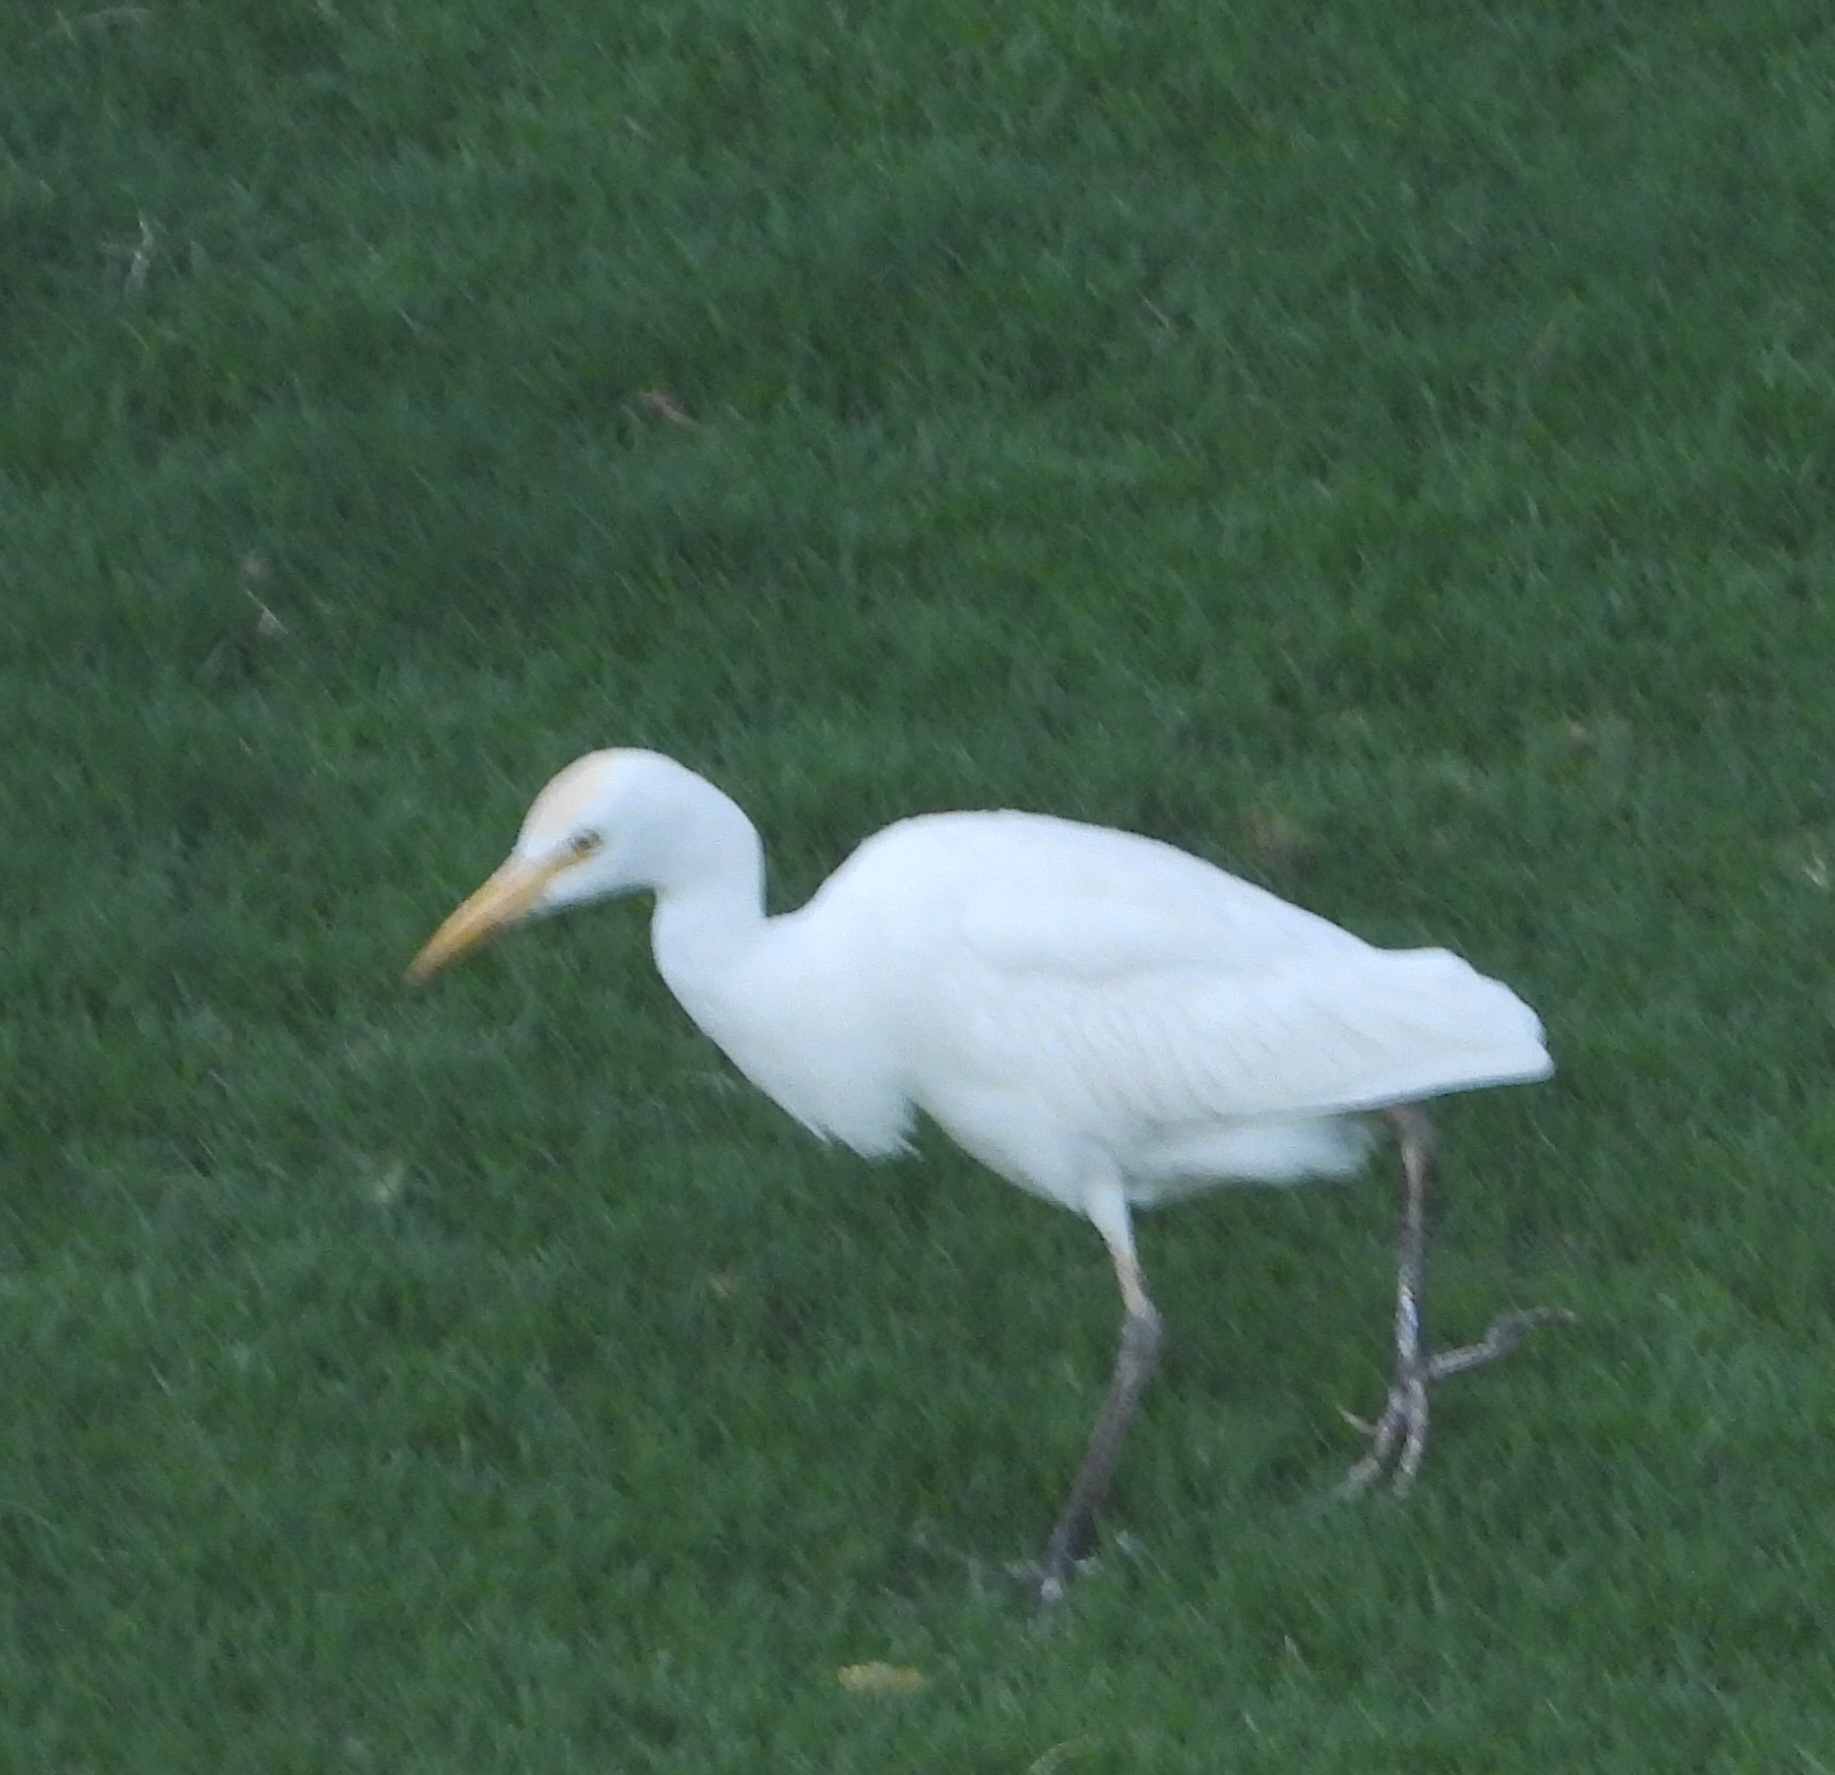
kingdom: Animalia
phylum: Chordata
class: Aves
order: Pelecaniformes
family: Ardeidae
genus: Bubulcus
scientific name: Bubulcus ibis
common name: Cattle egret
